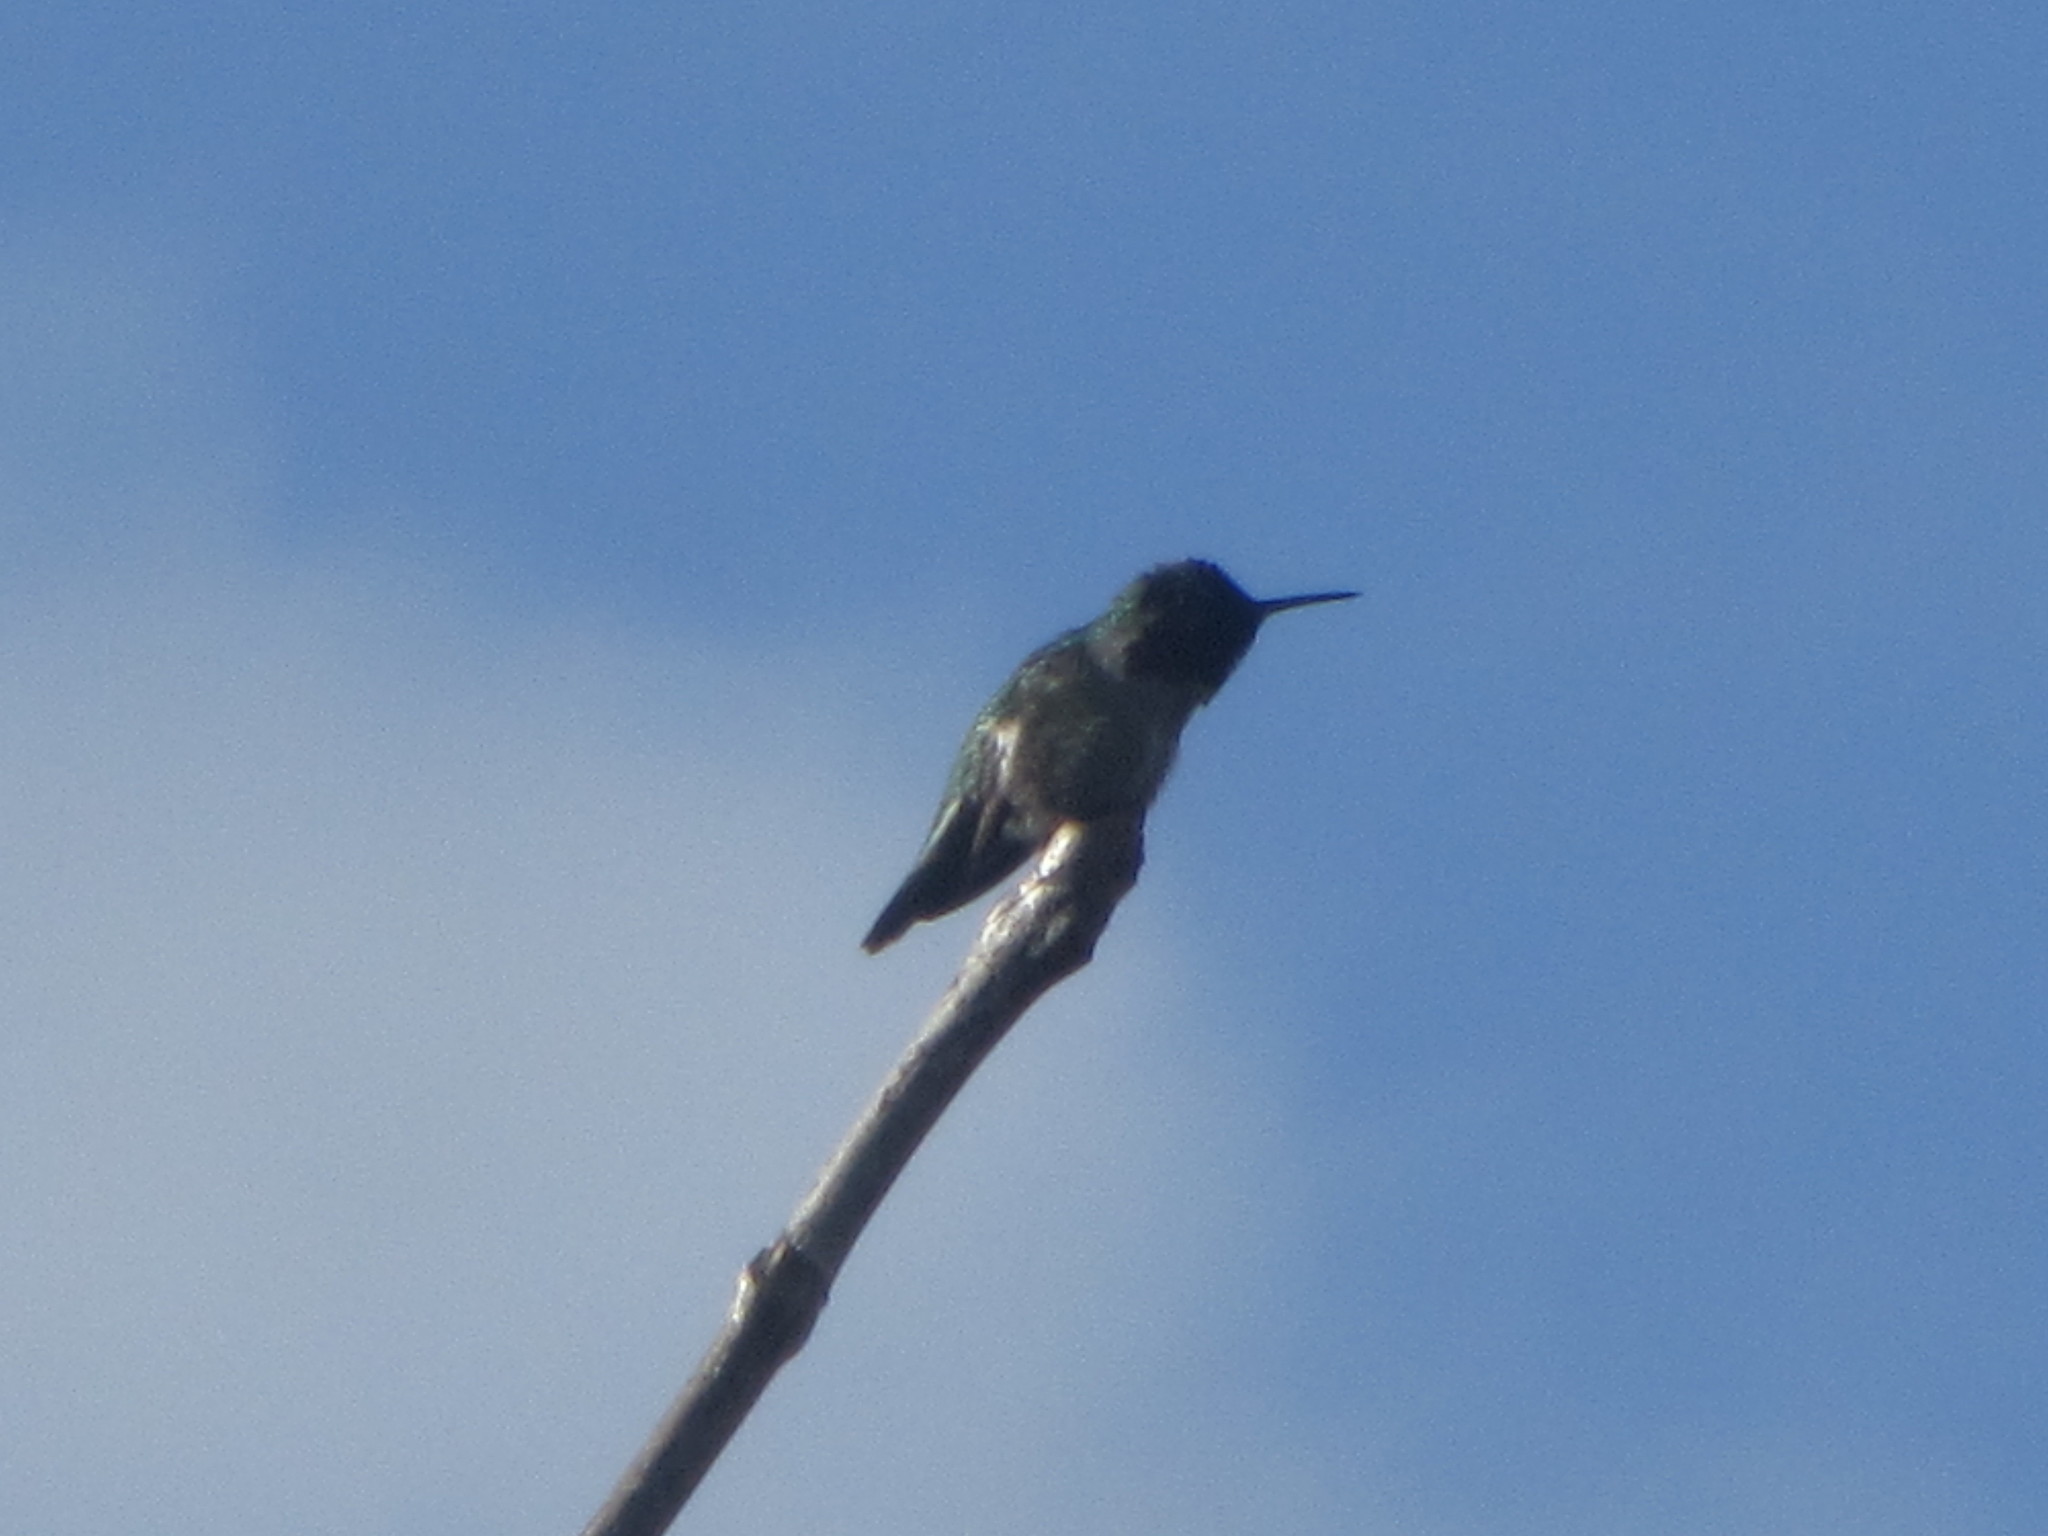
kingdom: Animalia
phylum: Chordata
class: Aves
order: Apodiformes
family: Trochilidae
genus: Calypte
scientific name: Calypte anna
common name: Anna's hummingbird
